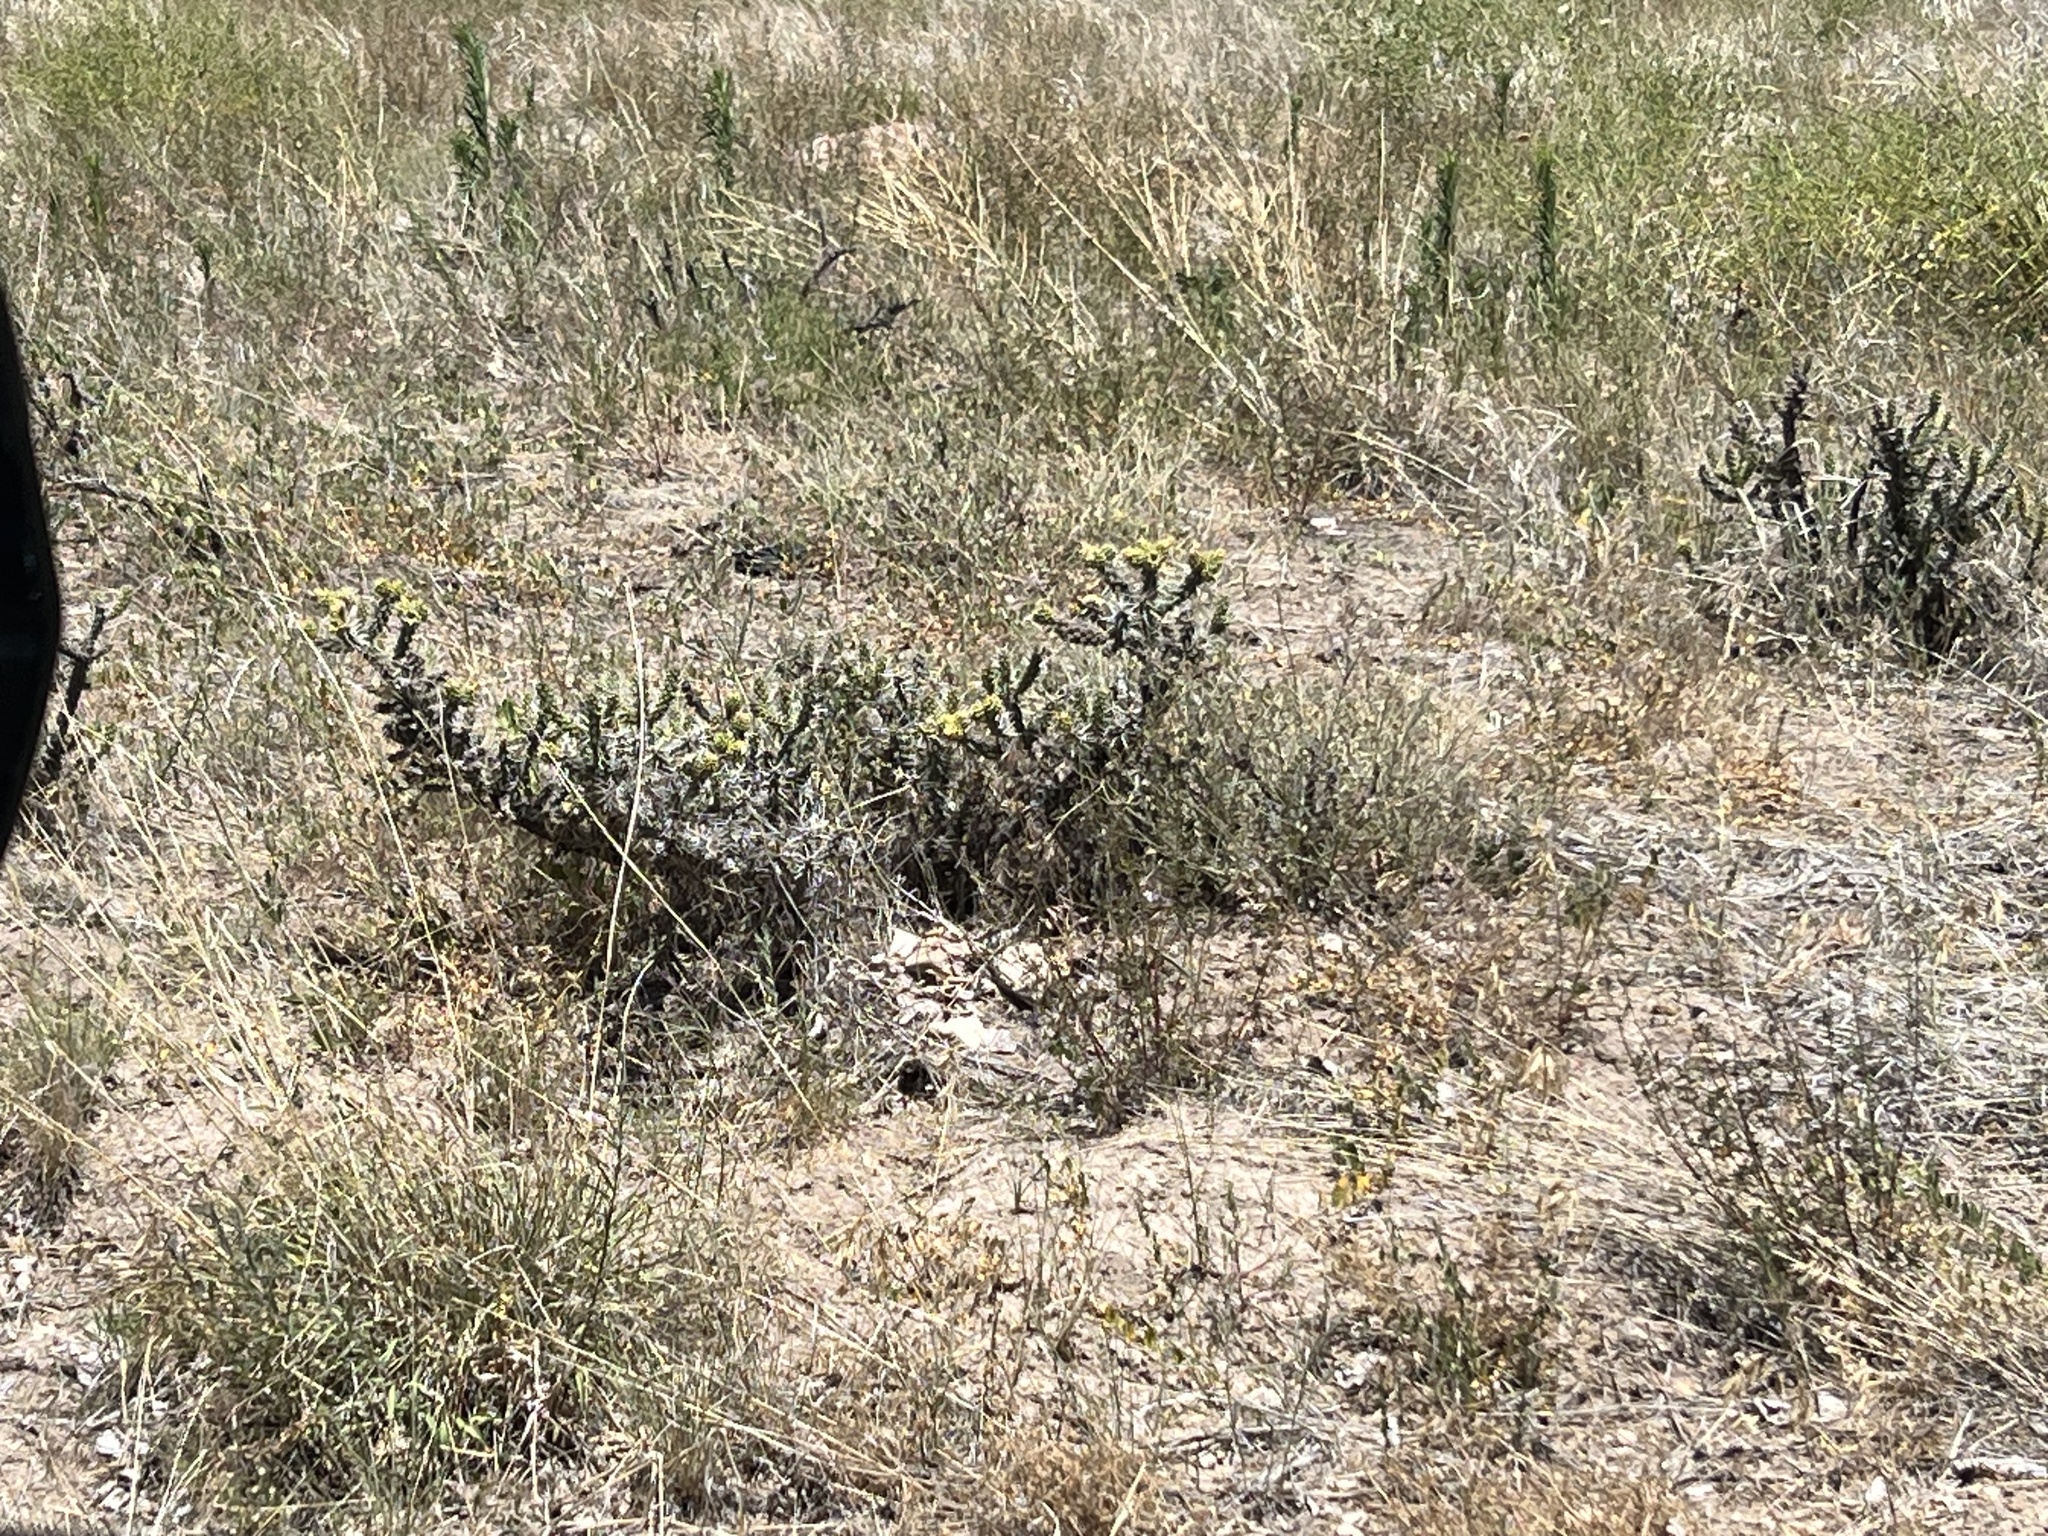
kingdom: Plantae
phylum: Tracheophyta
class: Magnoliopsida
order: Caryophyllales
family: Cactaceae
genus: Cylindropuntia
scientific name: Cylindropuntia whipplei
